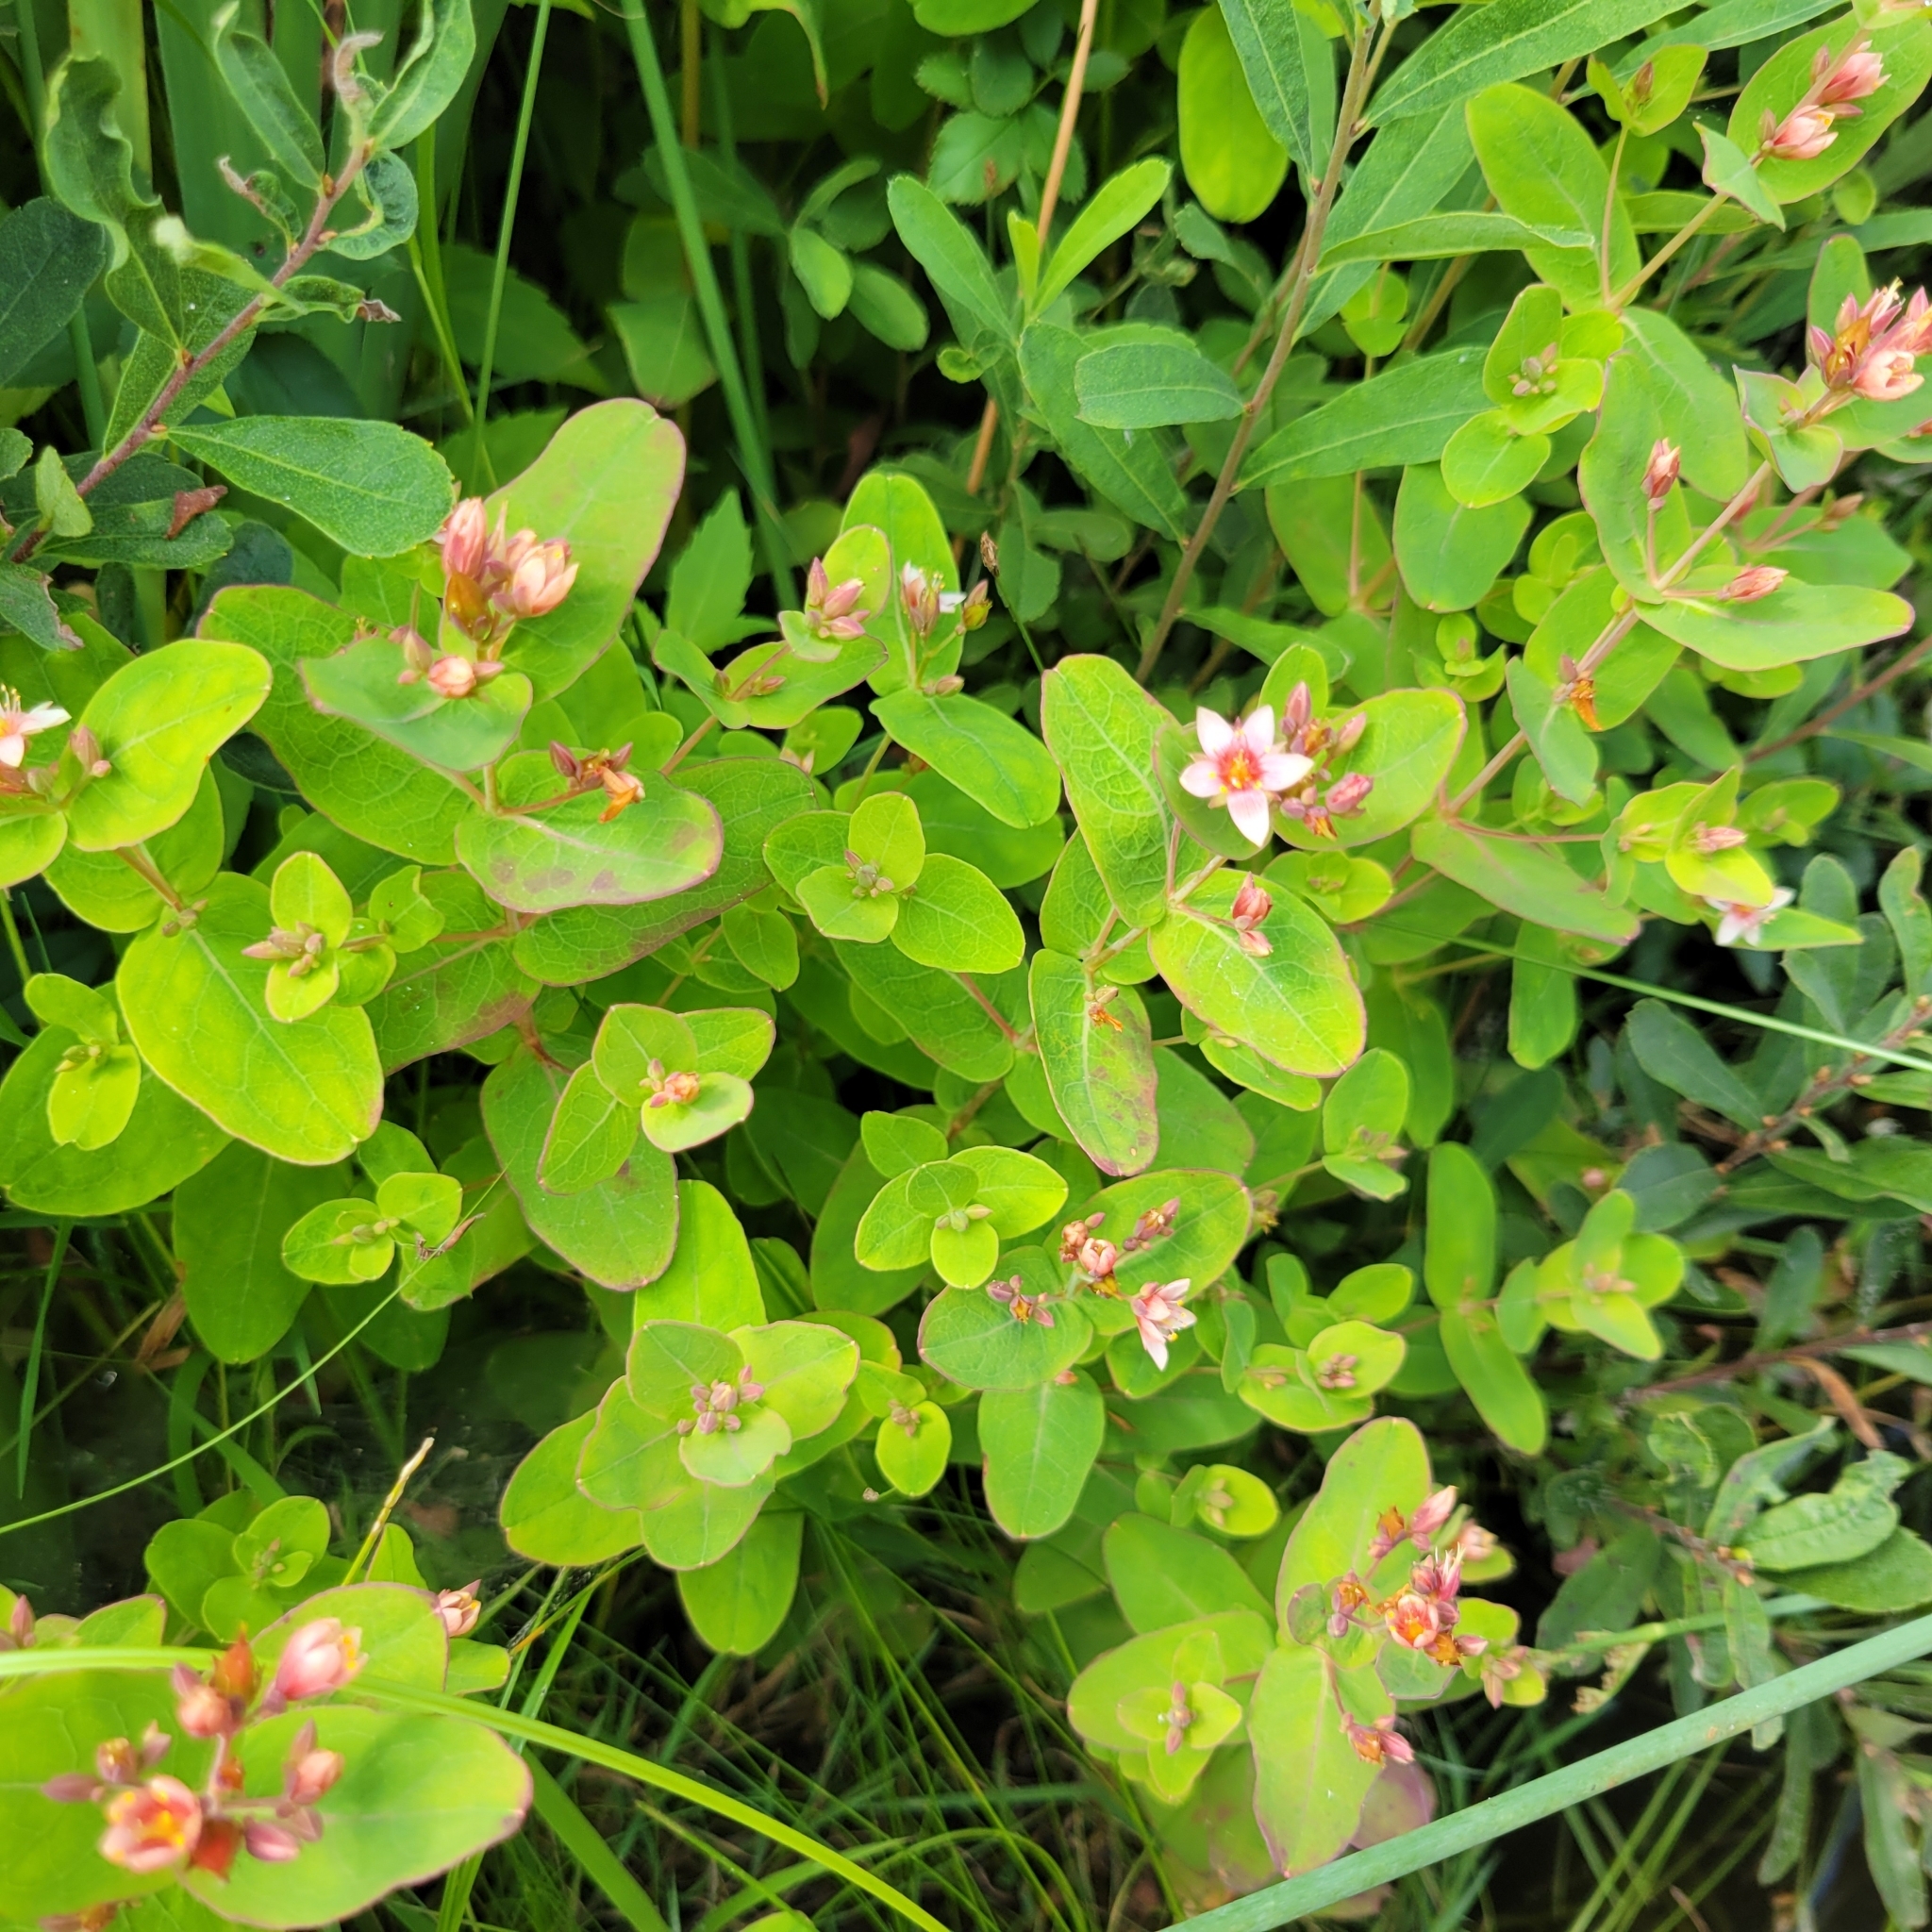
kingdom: Plantae
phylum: Tracheophyta
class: Magnoliopsida
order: Malpighiales
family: Hypericaceae
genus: Triadenum
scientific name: Triadenum virginicum
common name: Marsh st. john's-wort
